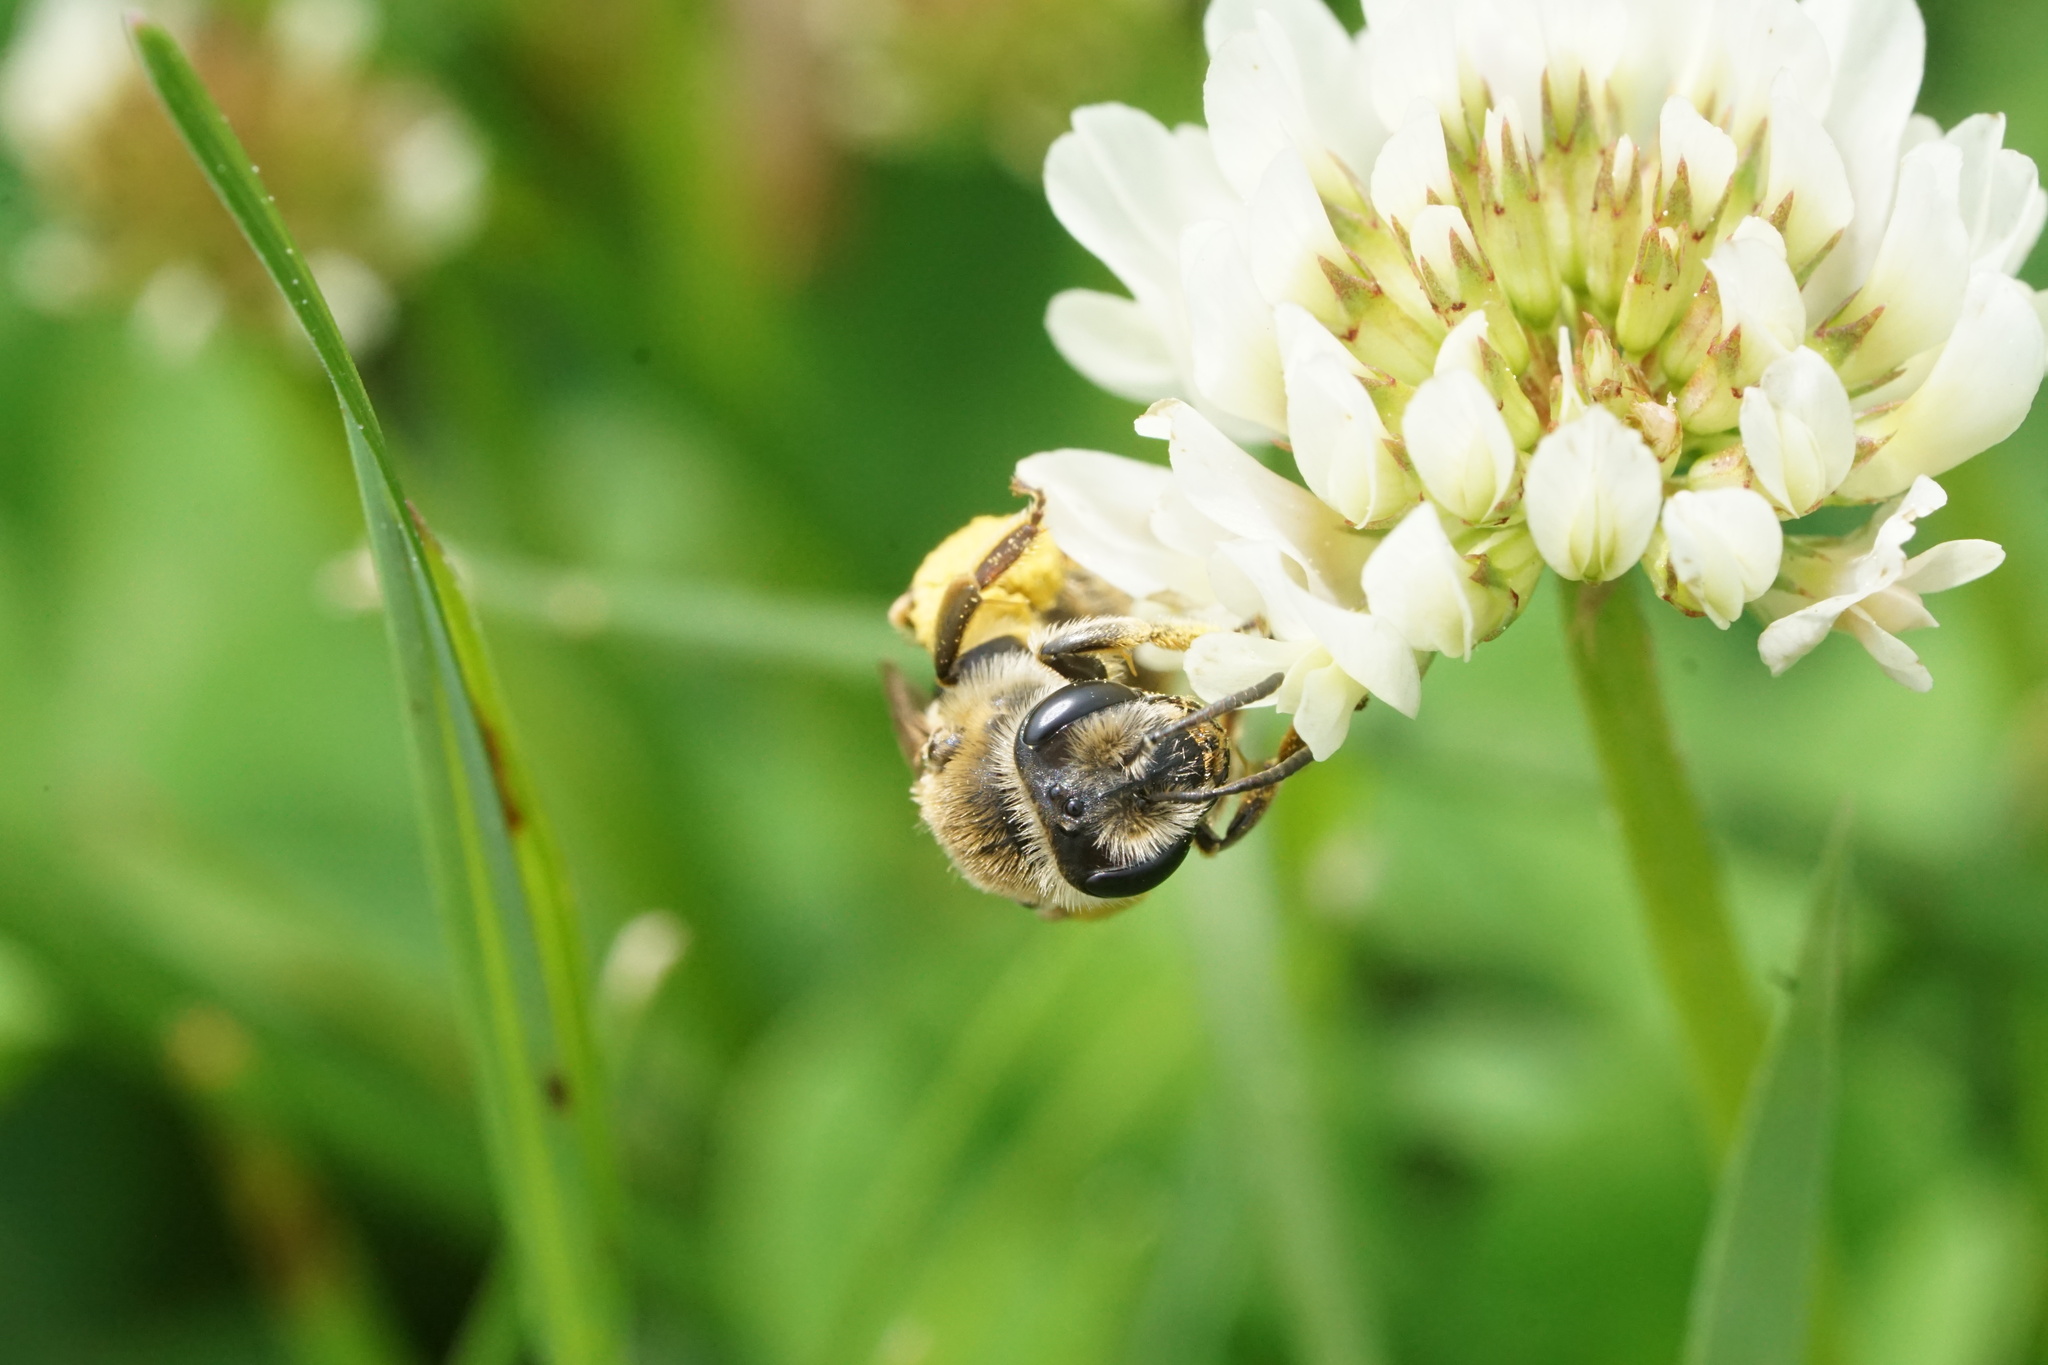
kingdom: Animalia
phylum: Arthropoda
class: Insecta
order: Hymenoptera
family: Andrenidae
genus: Andrena
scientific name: Andrena wilkella
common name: Wilke's mining bee
